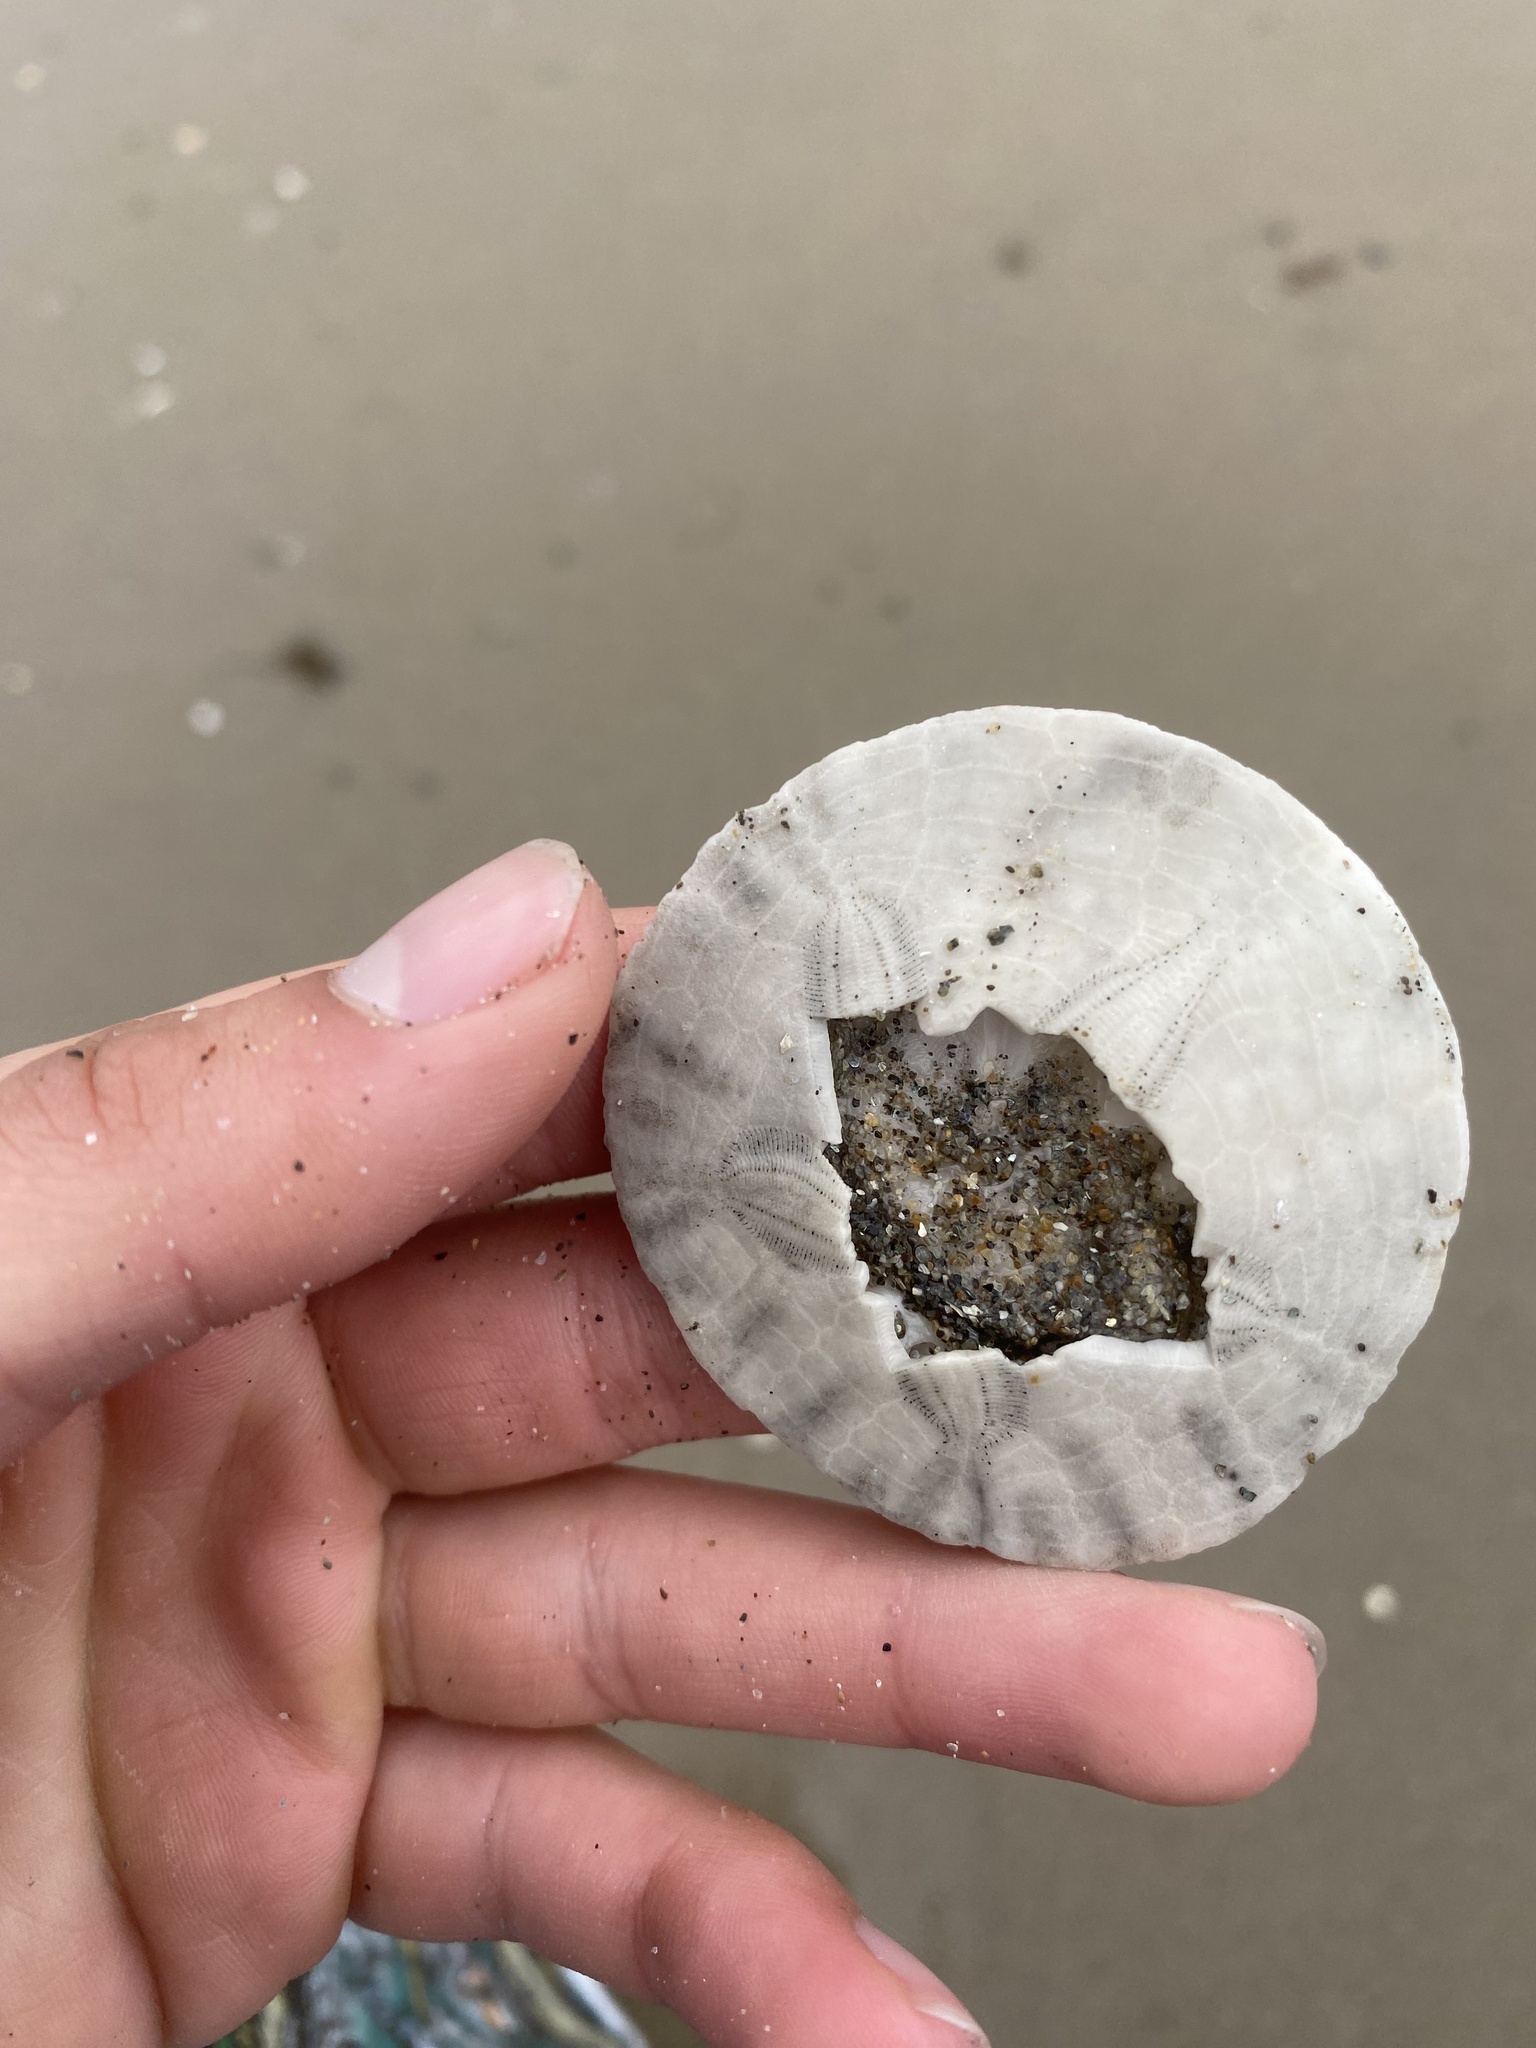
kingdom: Animalia
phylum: Echinodermata
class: Echinoidea
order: Echinolampadacea
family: Dendrasteridae
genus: Dendraster
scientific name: Dendraster excentricus
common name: Eccentric sand dollar sea urchin
